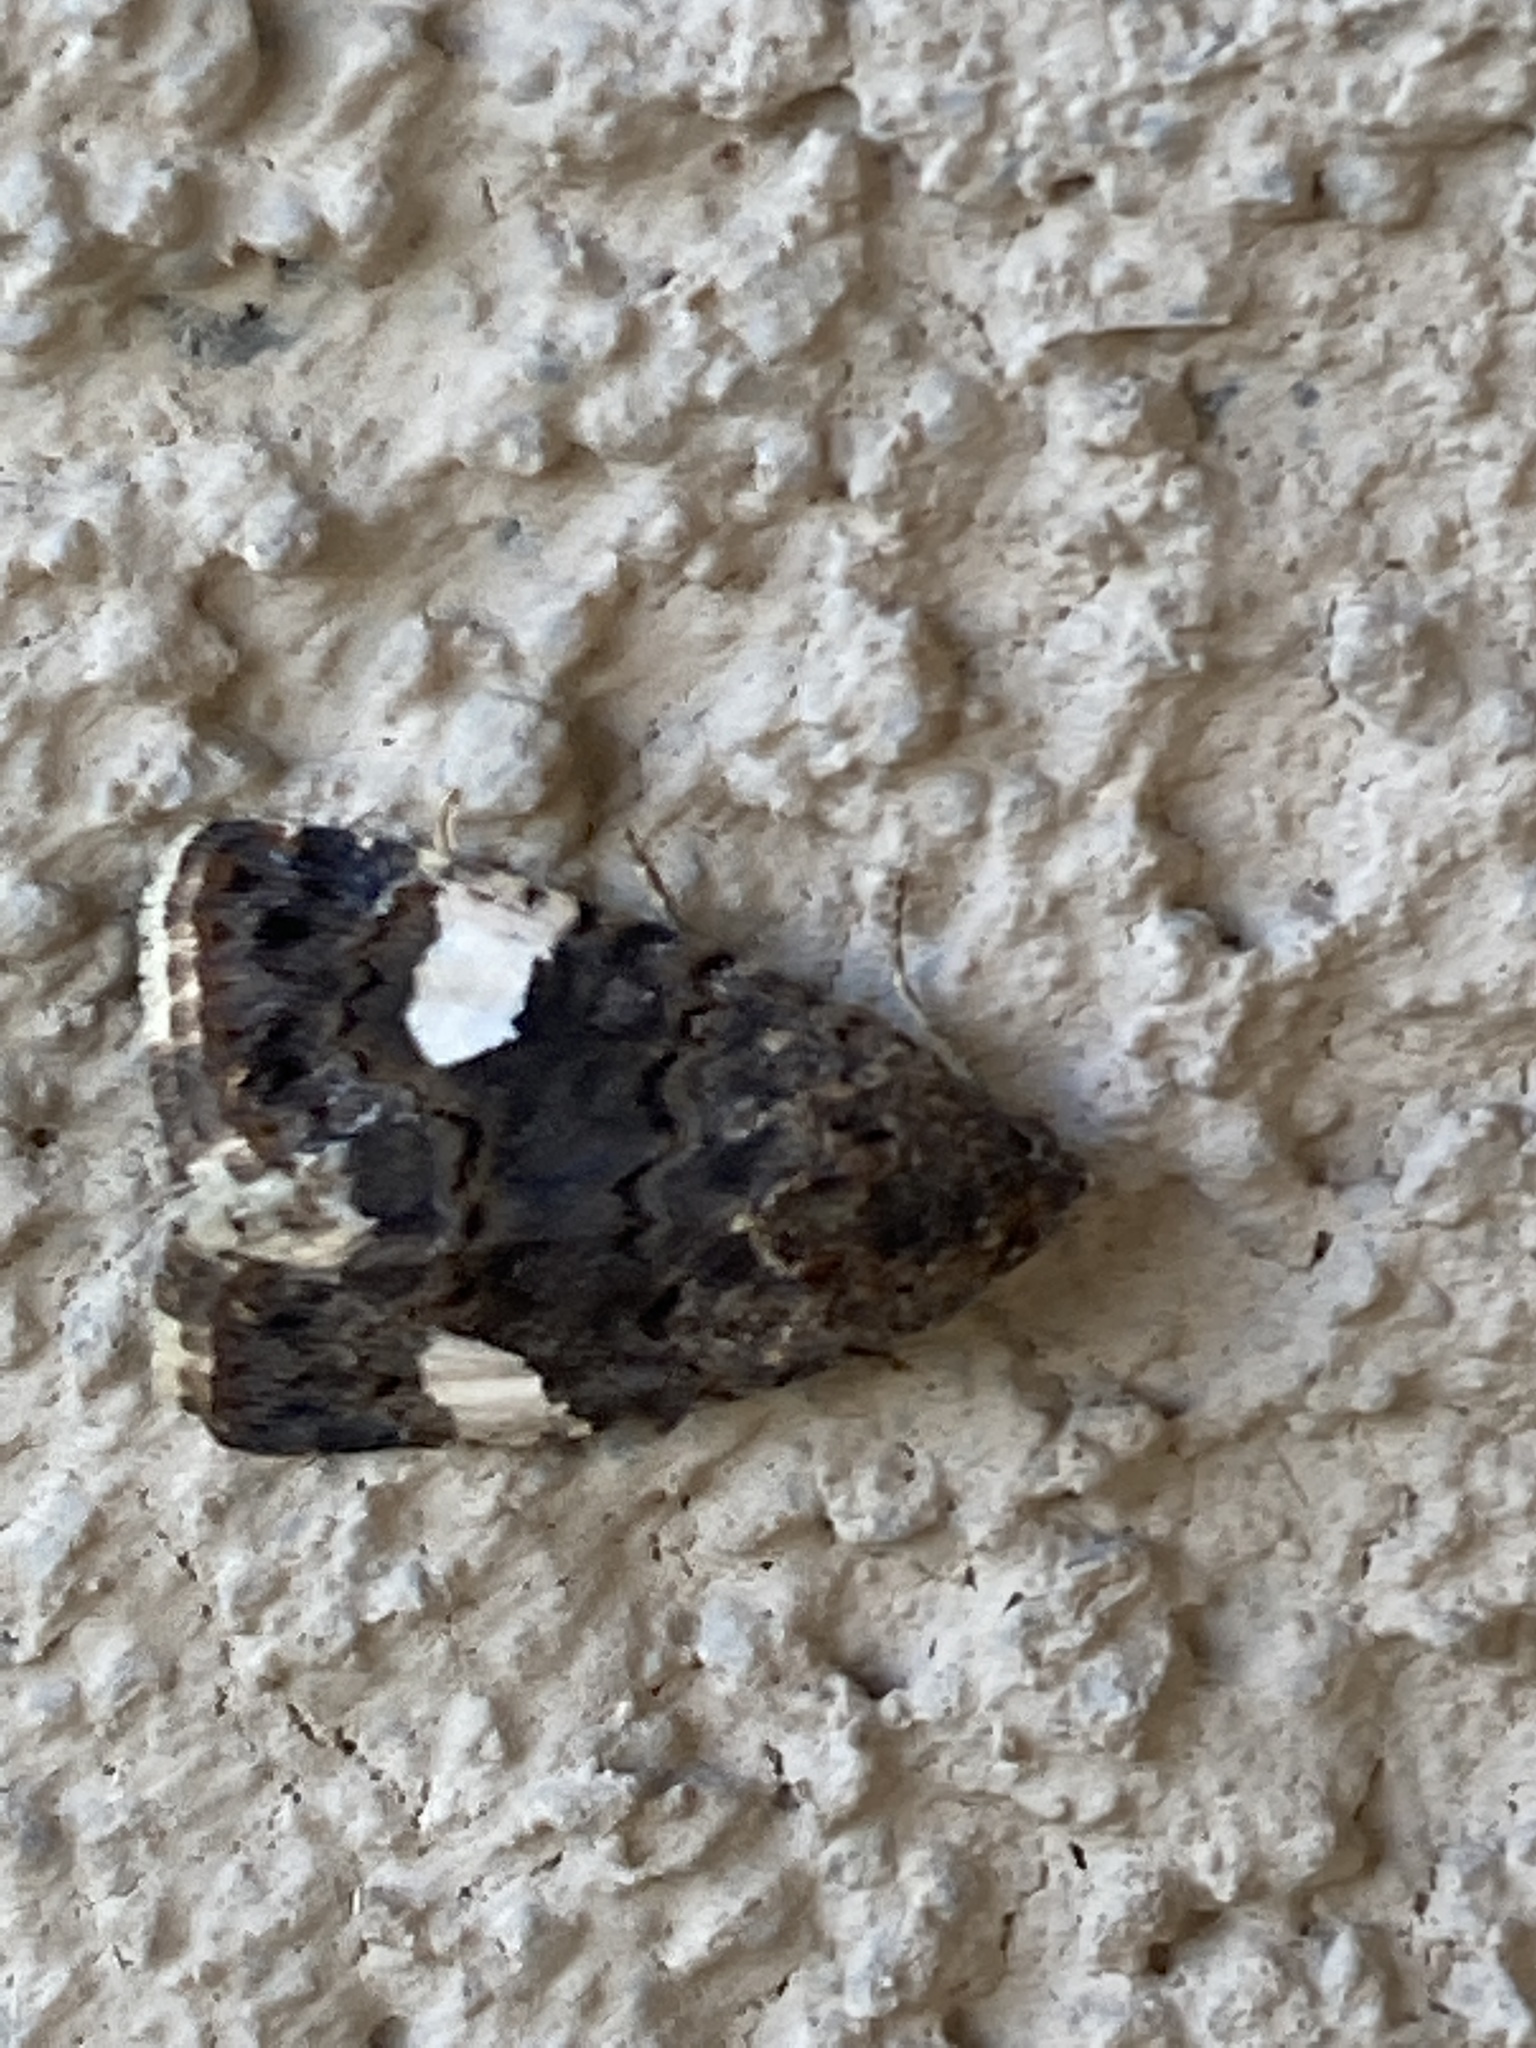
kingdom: Animalia
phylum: Arthropoda
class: Insecta
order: Lepidoptera
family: Erebidae
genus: Tyta
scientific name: Tyta luctuosa
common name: Four-spotted
